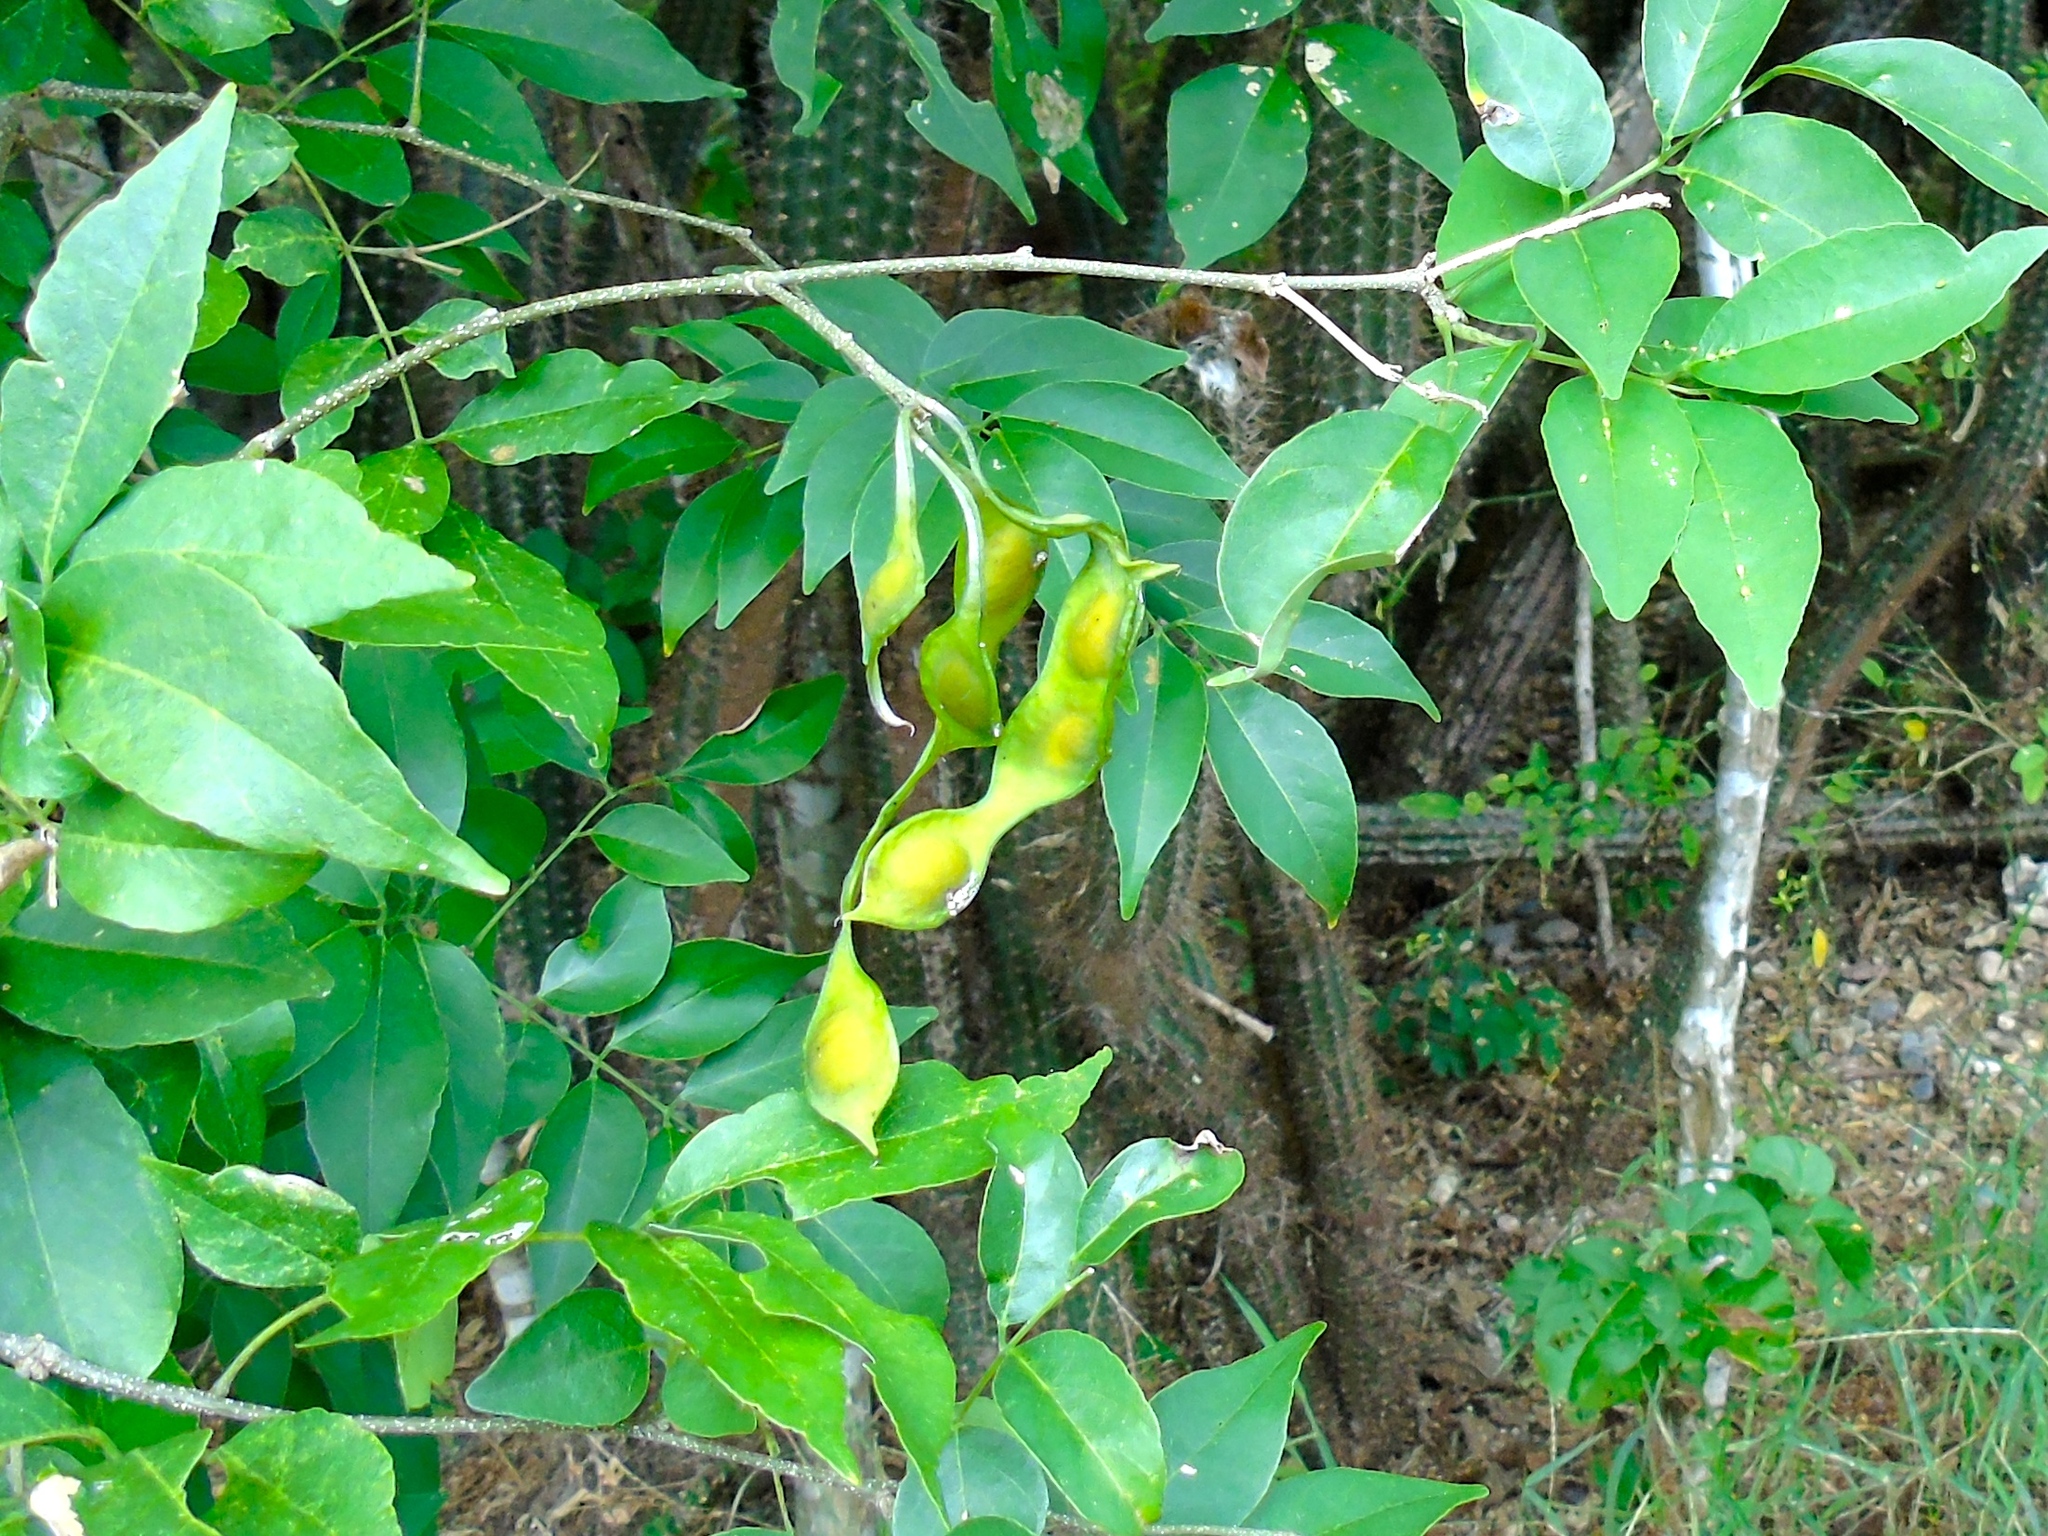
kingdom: Plantae
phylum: Tracheophyta
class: Magnoliopsida
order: Fabales
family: Fabaceae
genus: Lonchocarpus
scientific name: Lonchocarpus lanceolatus
